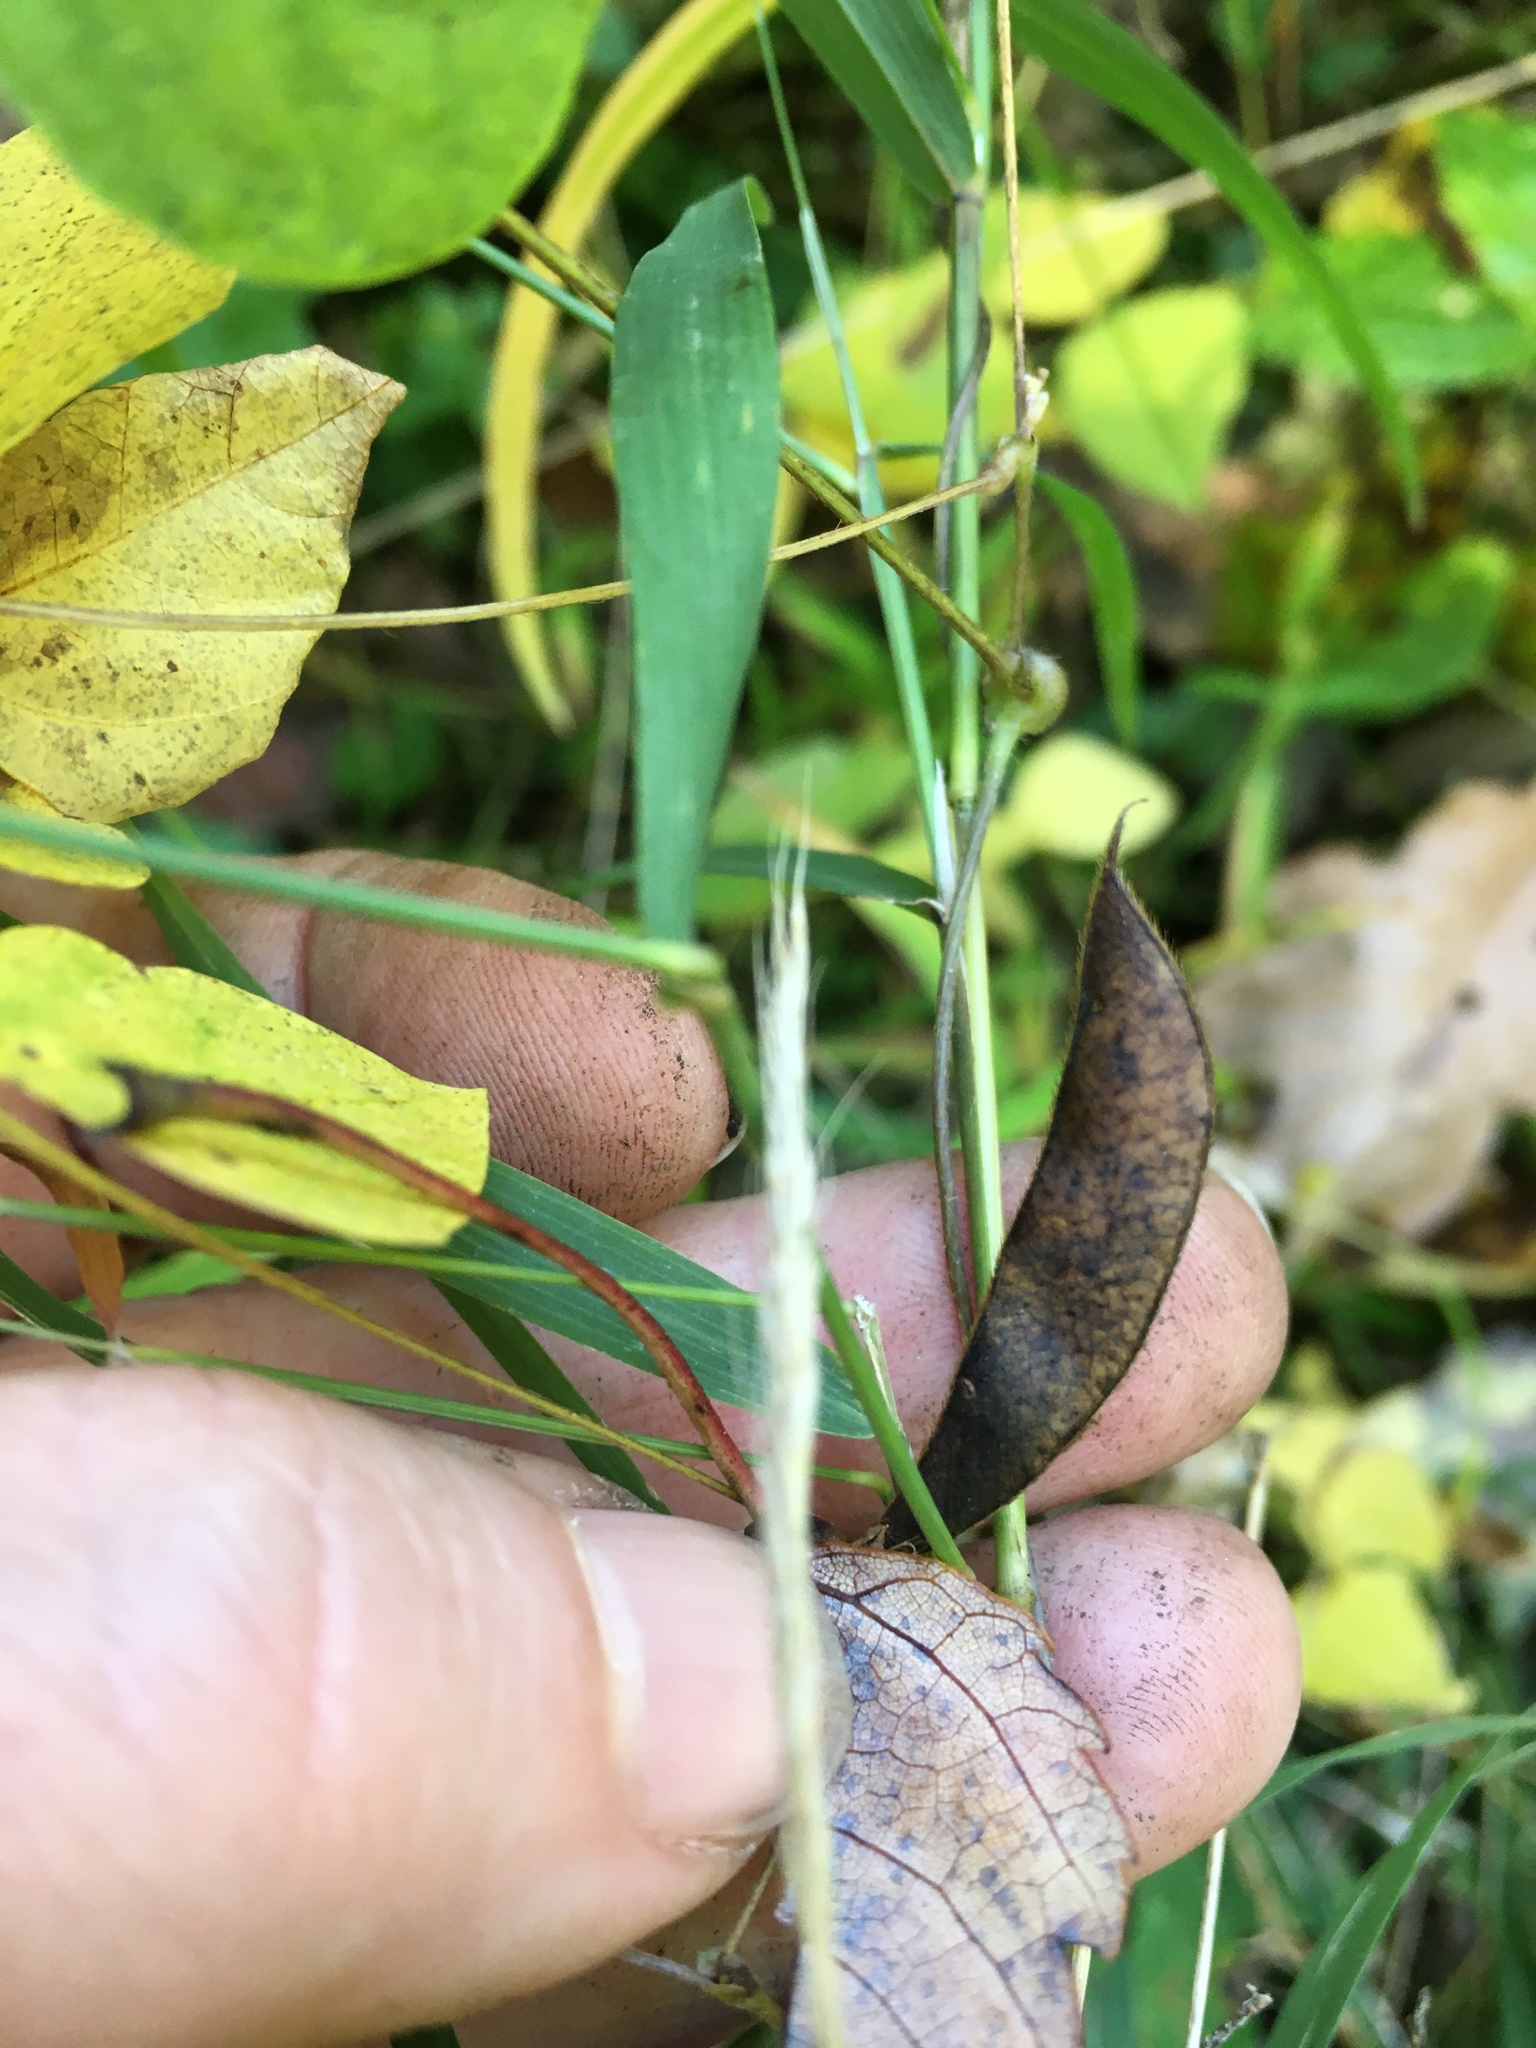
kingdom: Plantae
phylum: Tracheophyta
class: Magnoliopsida
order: Fabales
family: Fabaceae
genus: Amphicarpaea
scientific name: Amphicarpaea bracteata
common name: American hog peanut
